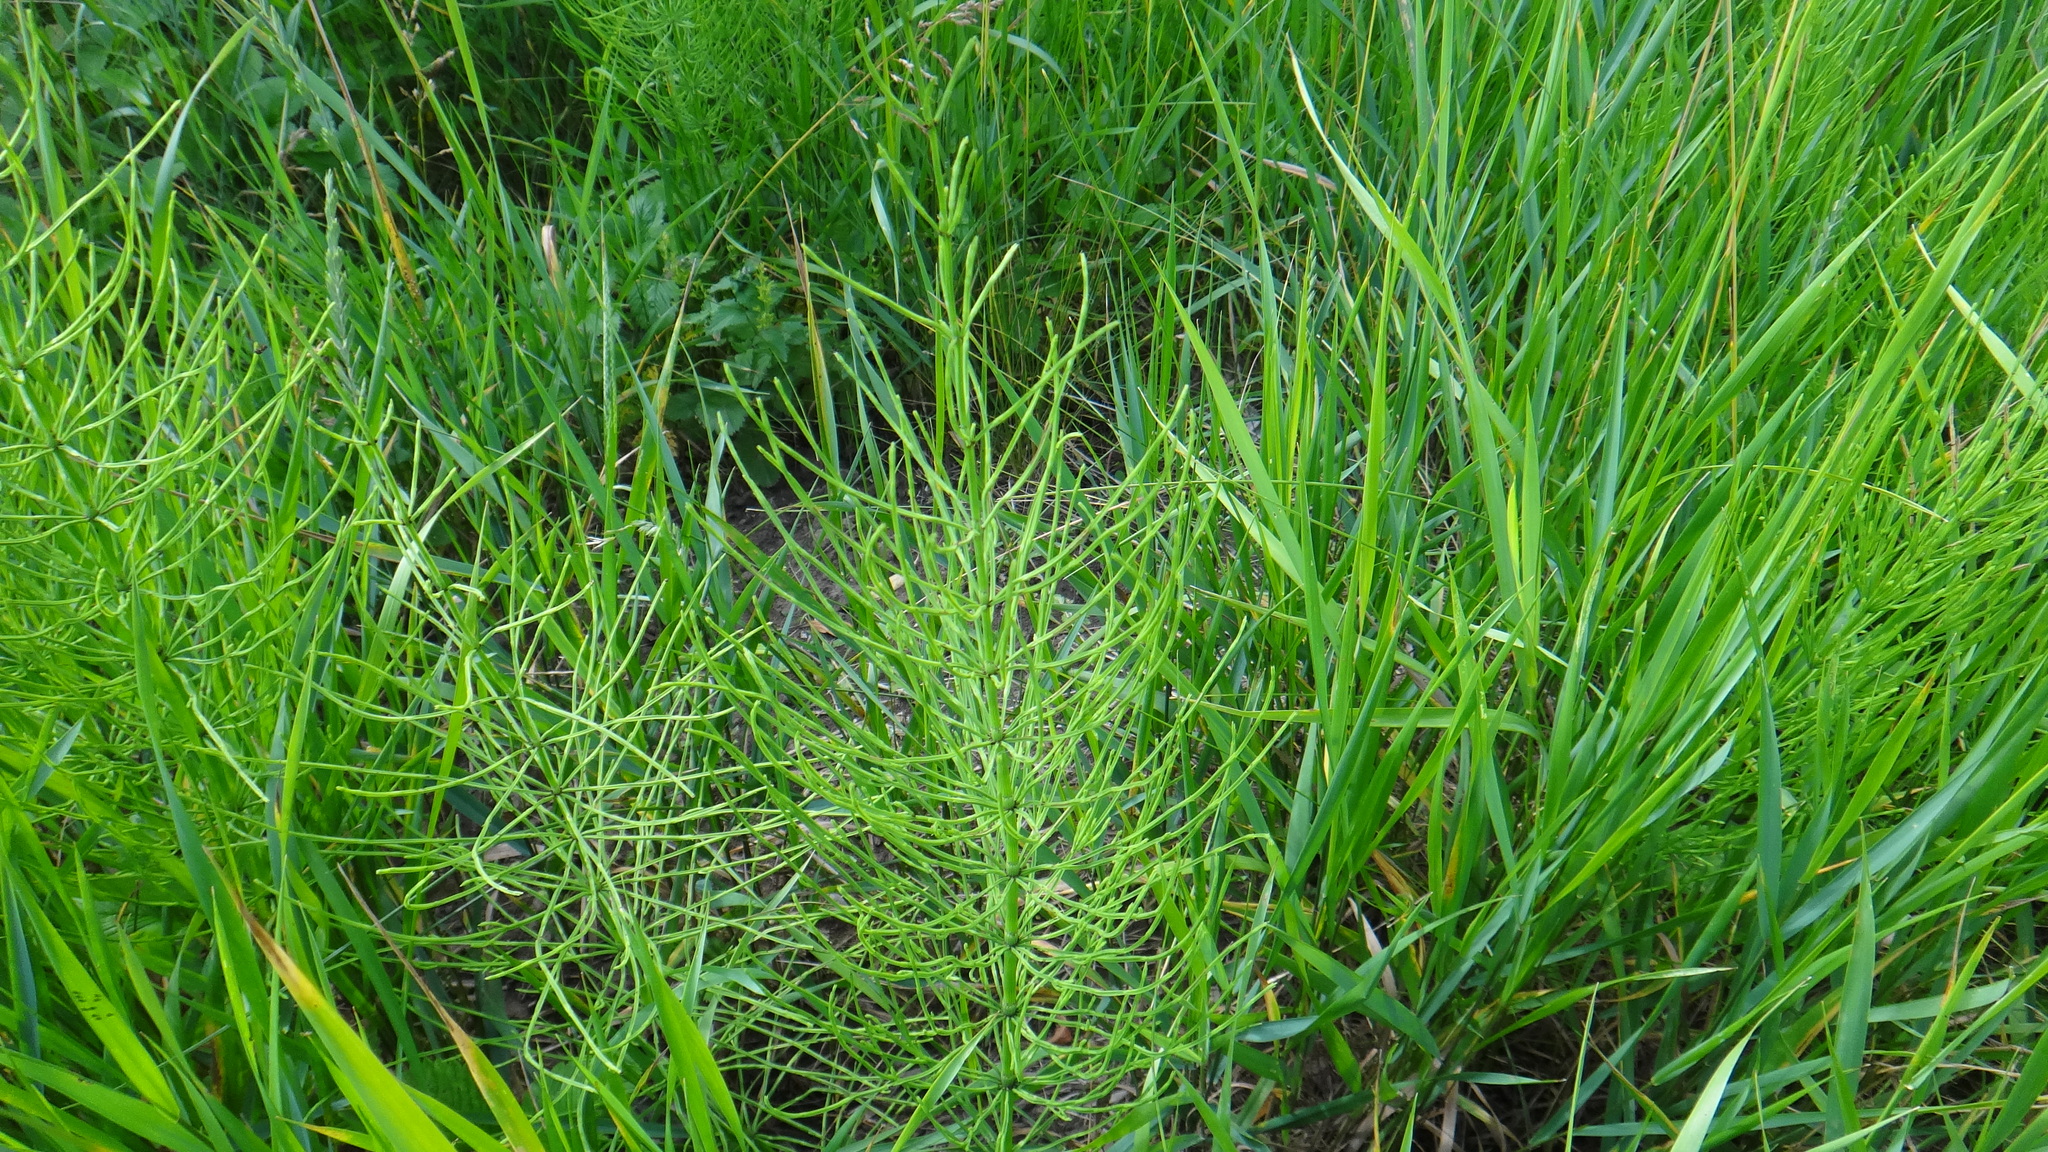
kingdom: Plantae
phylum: Tracheophyta
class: Polypodiopsida
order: Equisetales
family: Equisetaceae
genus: Equisetum
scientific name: Equisetum arvense
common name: Field horsetail
